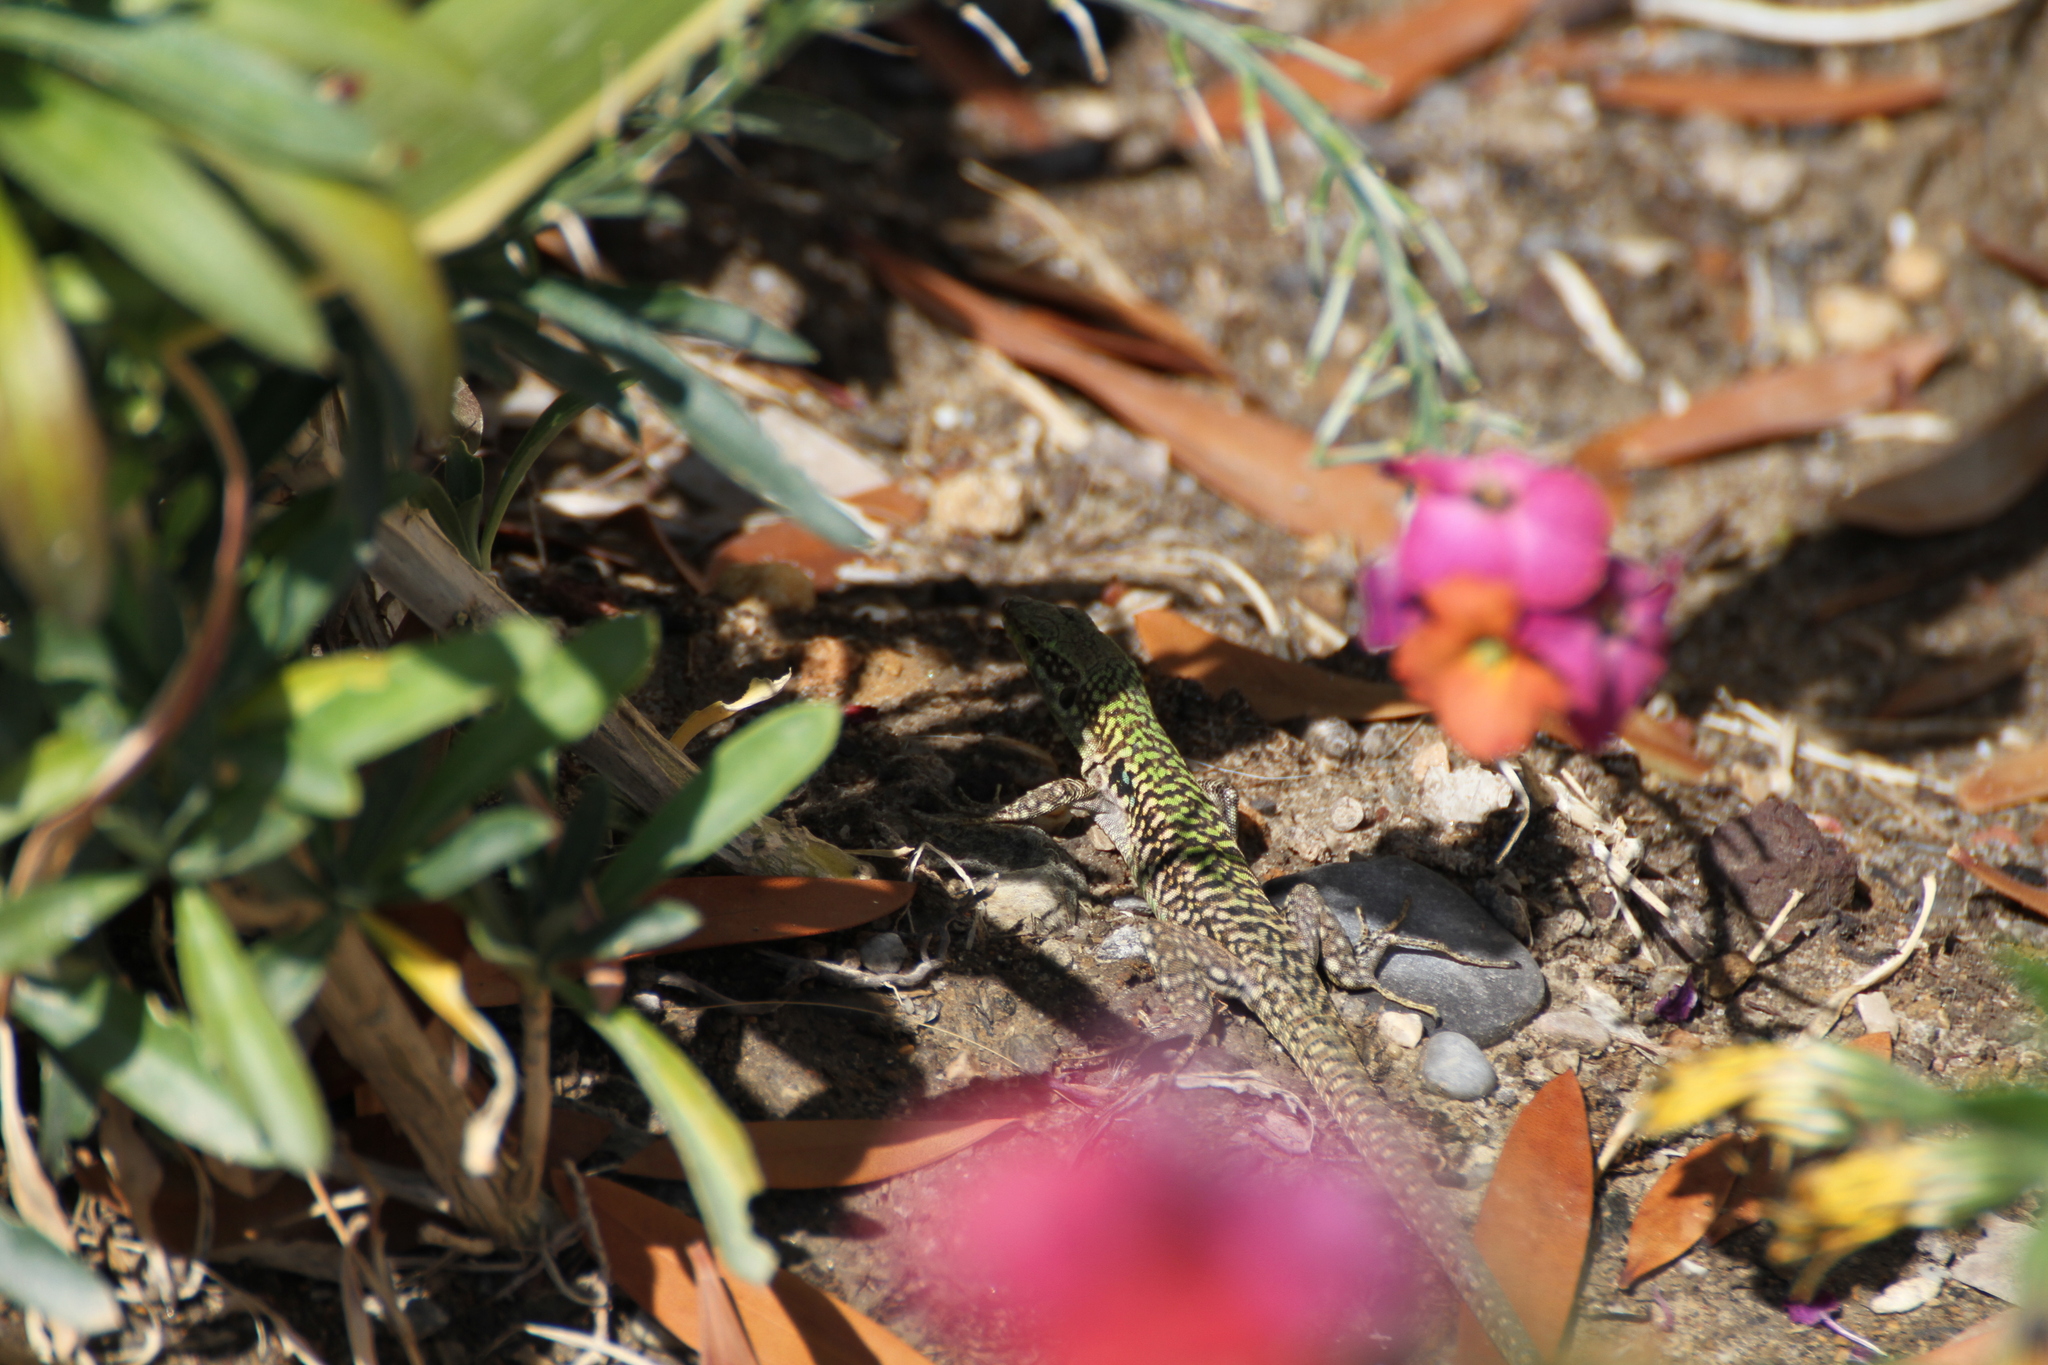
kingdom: Animalia
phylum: Chordata
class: Squamata
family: Lacertidae
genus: Podarcis
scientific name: Podarcis siculus
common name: Italian wall lizard
